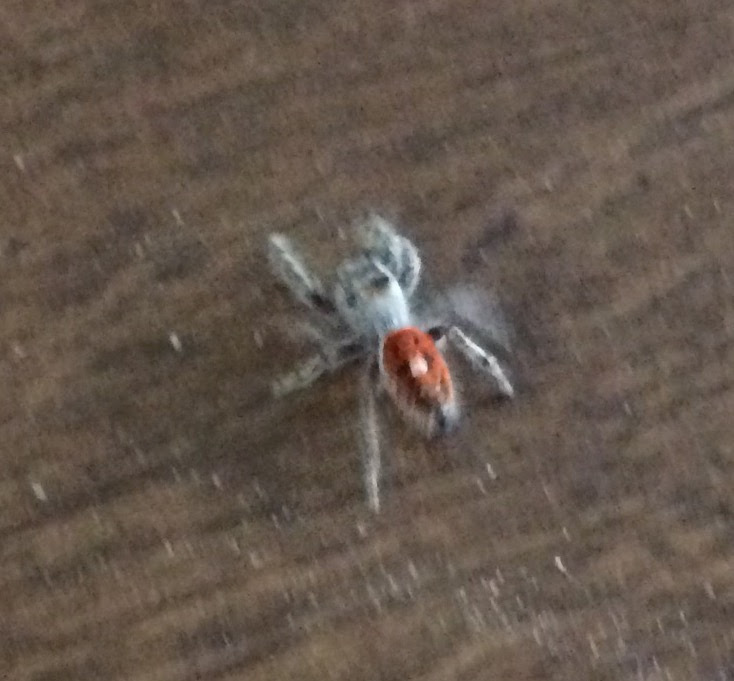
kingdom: Animalia
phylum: Arthropoda
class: Arachnida
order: Araneae
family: Salticidae
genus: Phidippus
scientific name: Phidippus adumbratus
